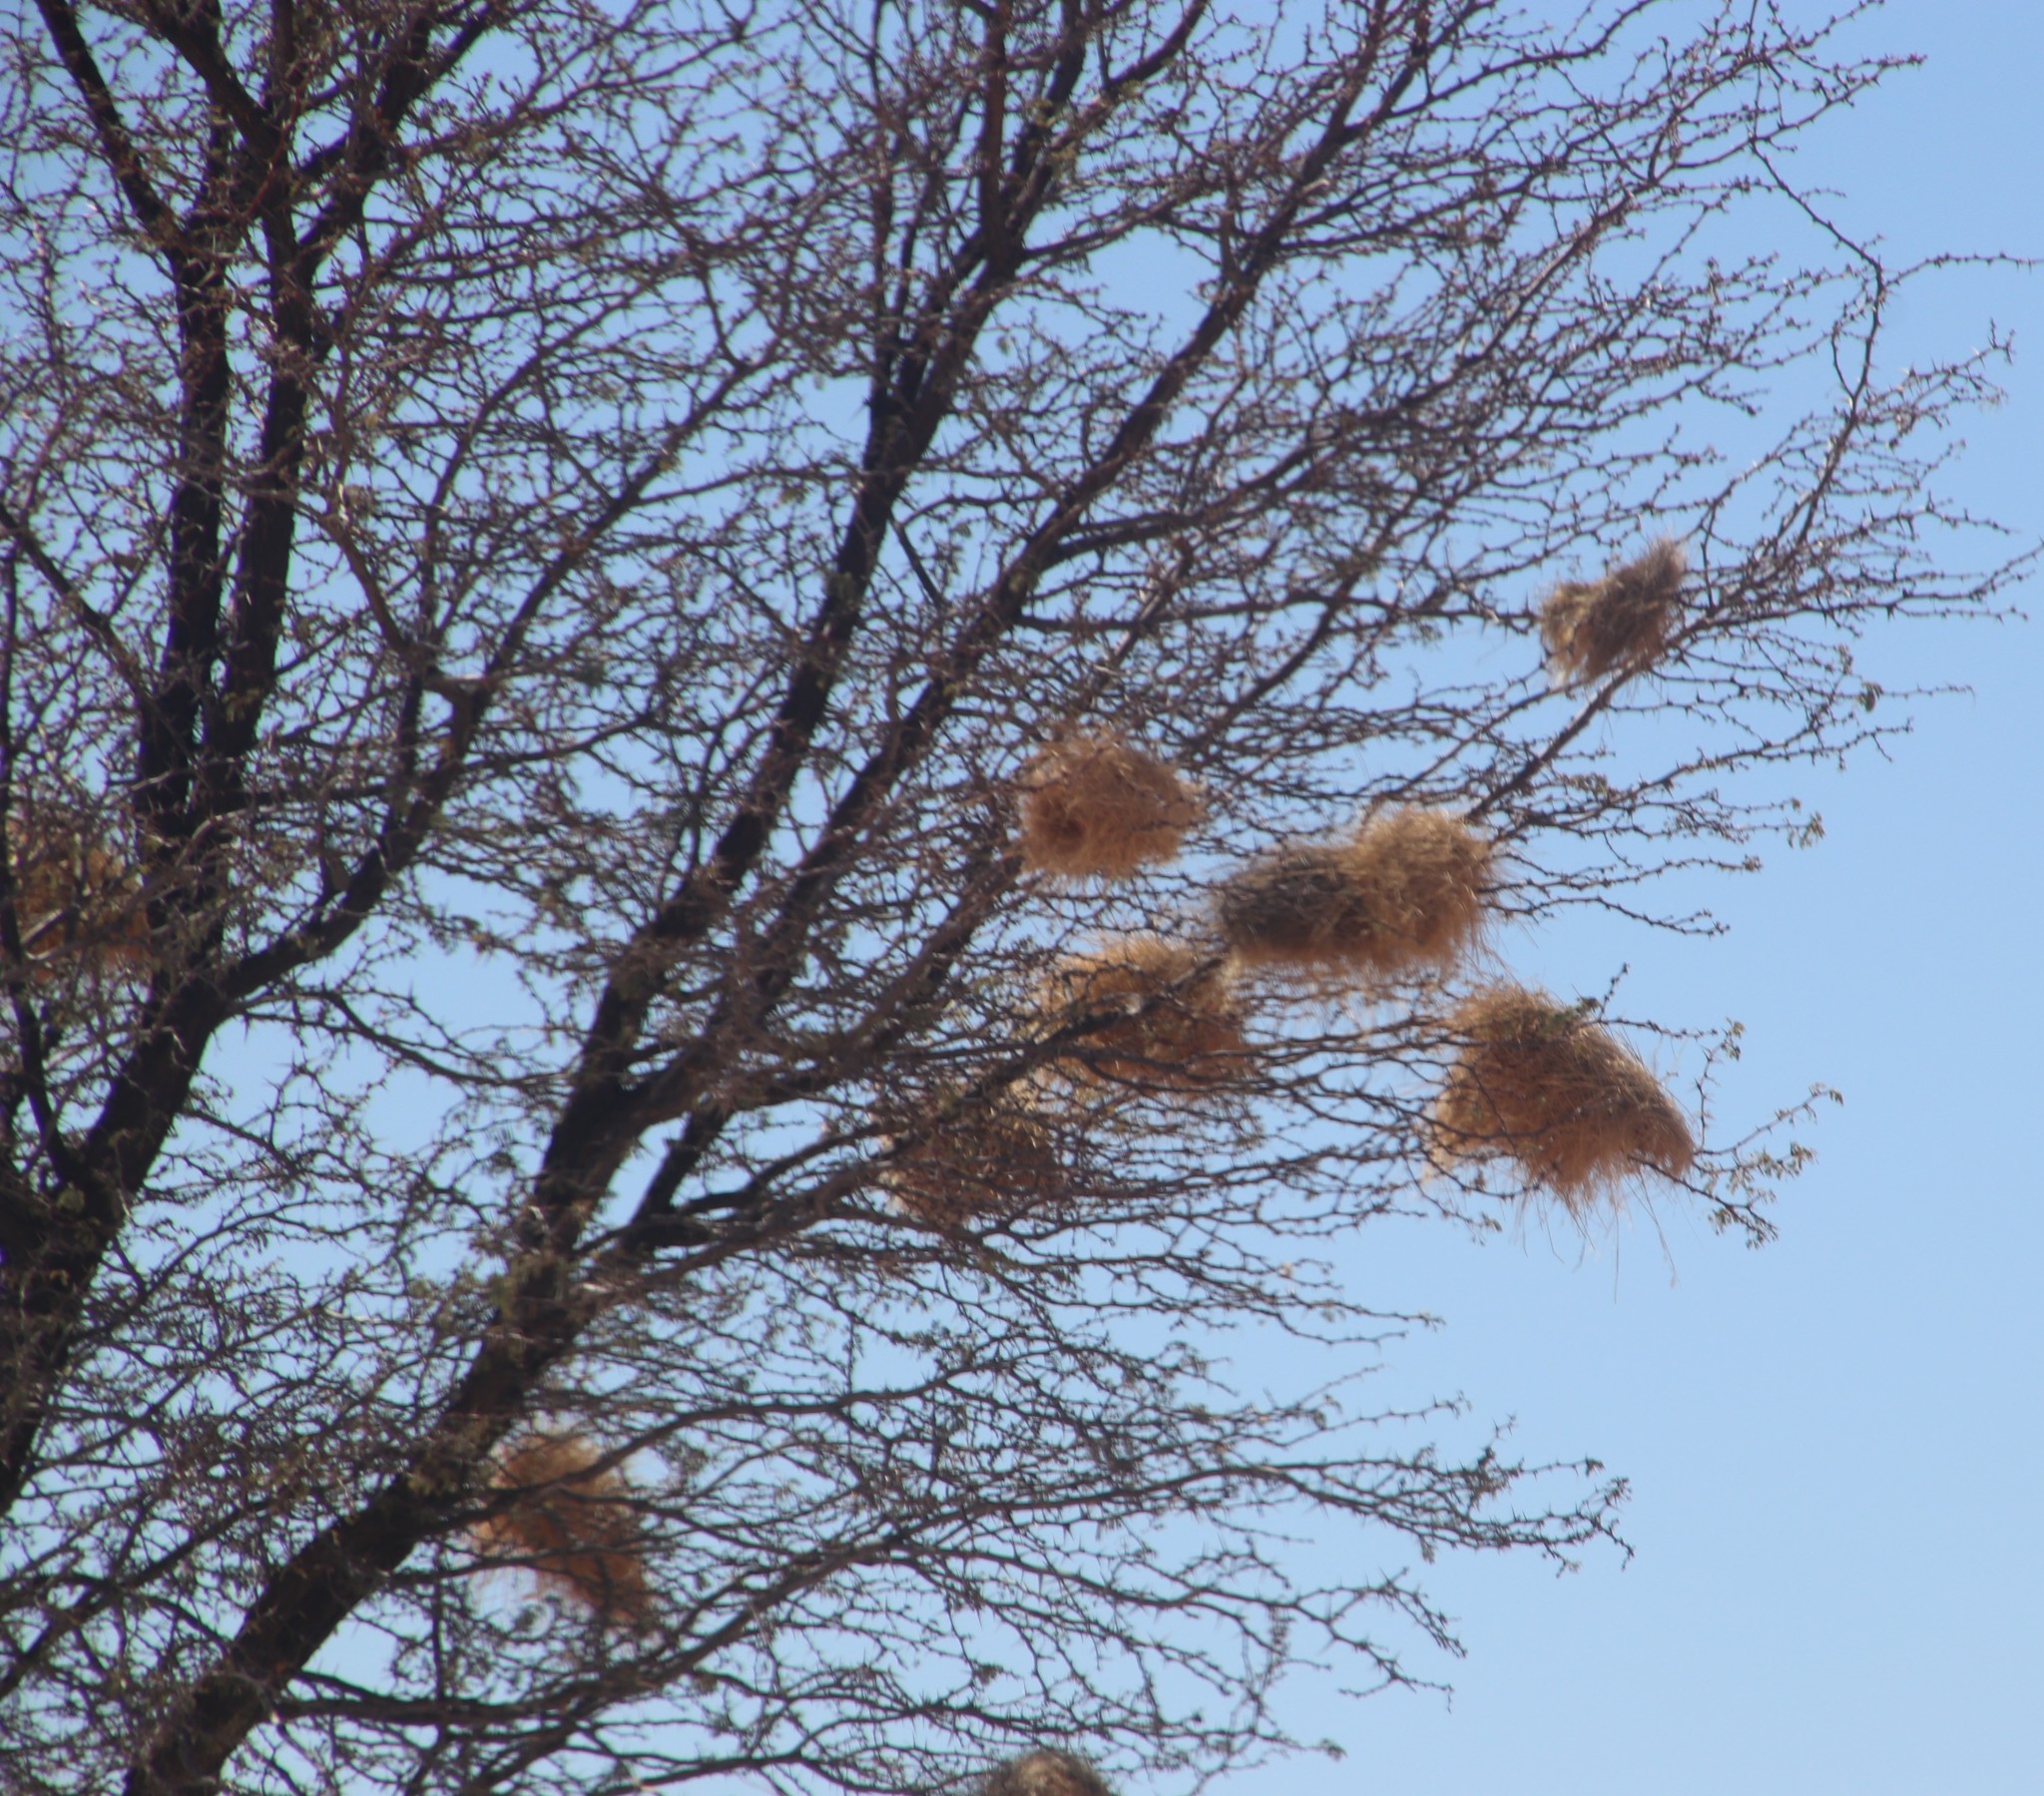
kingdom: Animalia
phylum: Chordata
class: Aves
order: Passeriformes
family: Passeridae
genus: Plocepasser
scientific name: Plocepasser mahali
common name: White-browed sparrow-weaver
